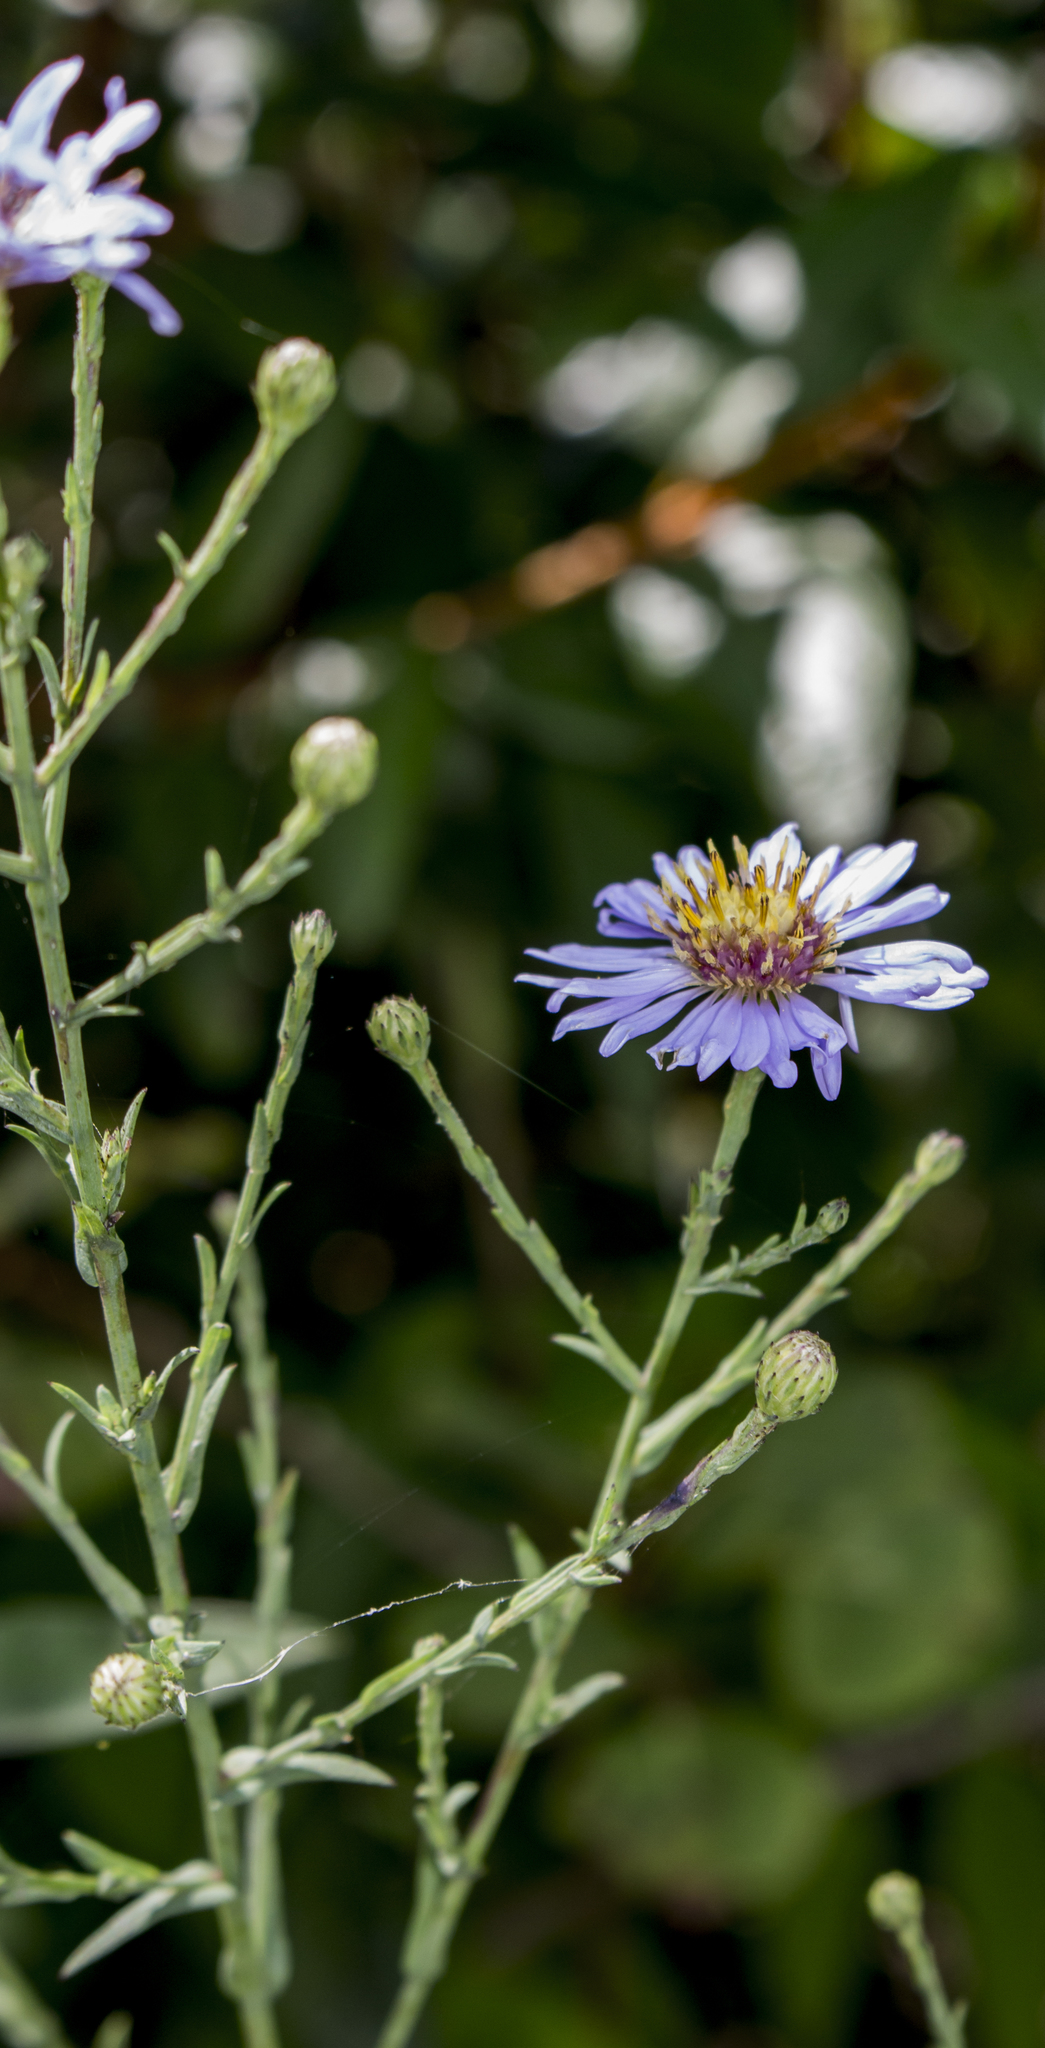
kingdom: Plantae
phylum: Tracheophyta
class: Magnoliopsida
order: Asterales
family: Asteraceae
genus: Symphyotrichum
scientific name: Symphyotrichum oolentangiense
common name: Azure aster
